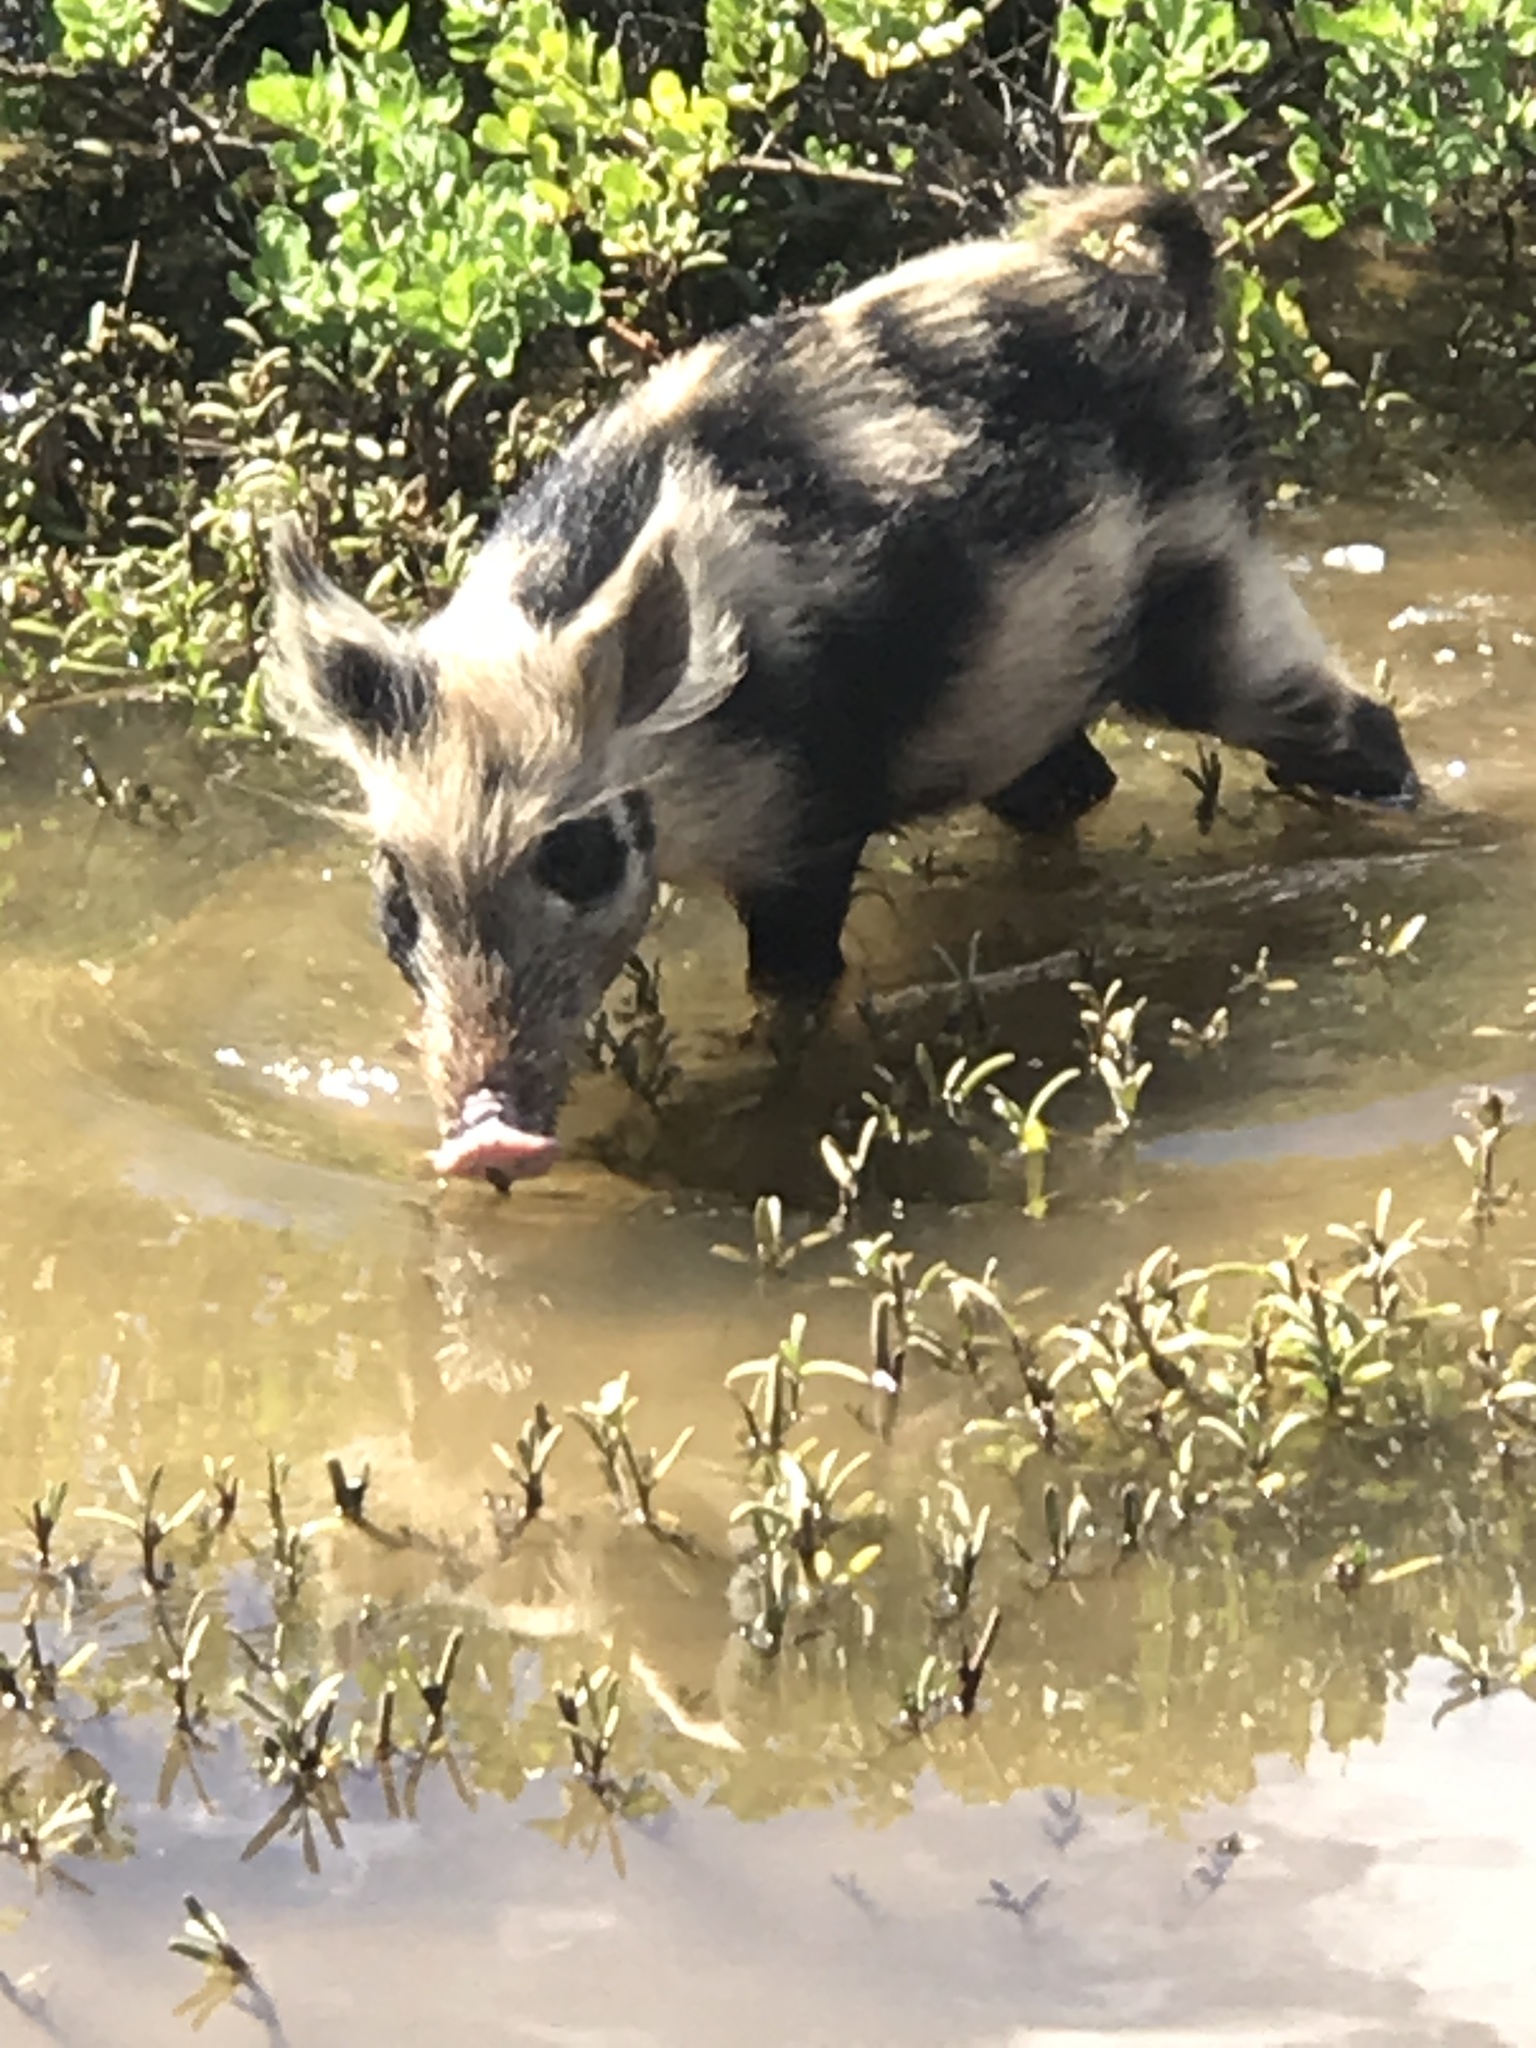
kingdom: Animalia
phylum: Chordata
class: Mammalia
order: Artiodactyla
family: Suidae
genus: Sus
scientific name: Sus scrofa
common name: Wild boar
